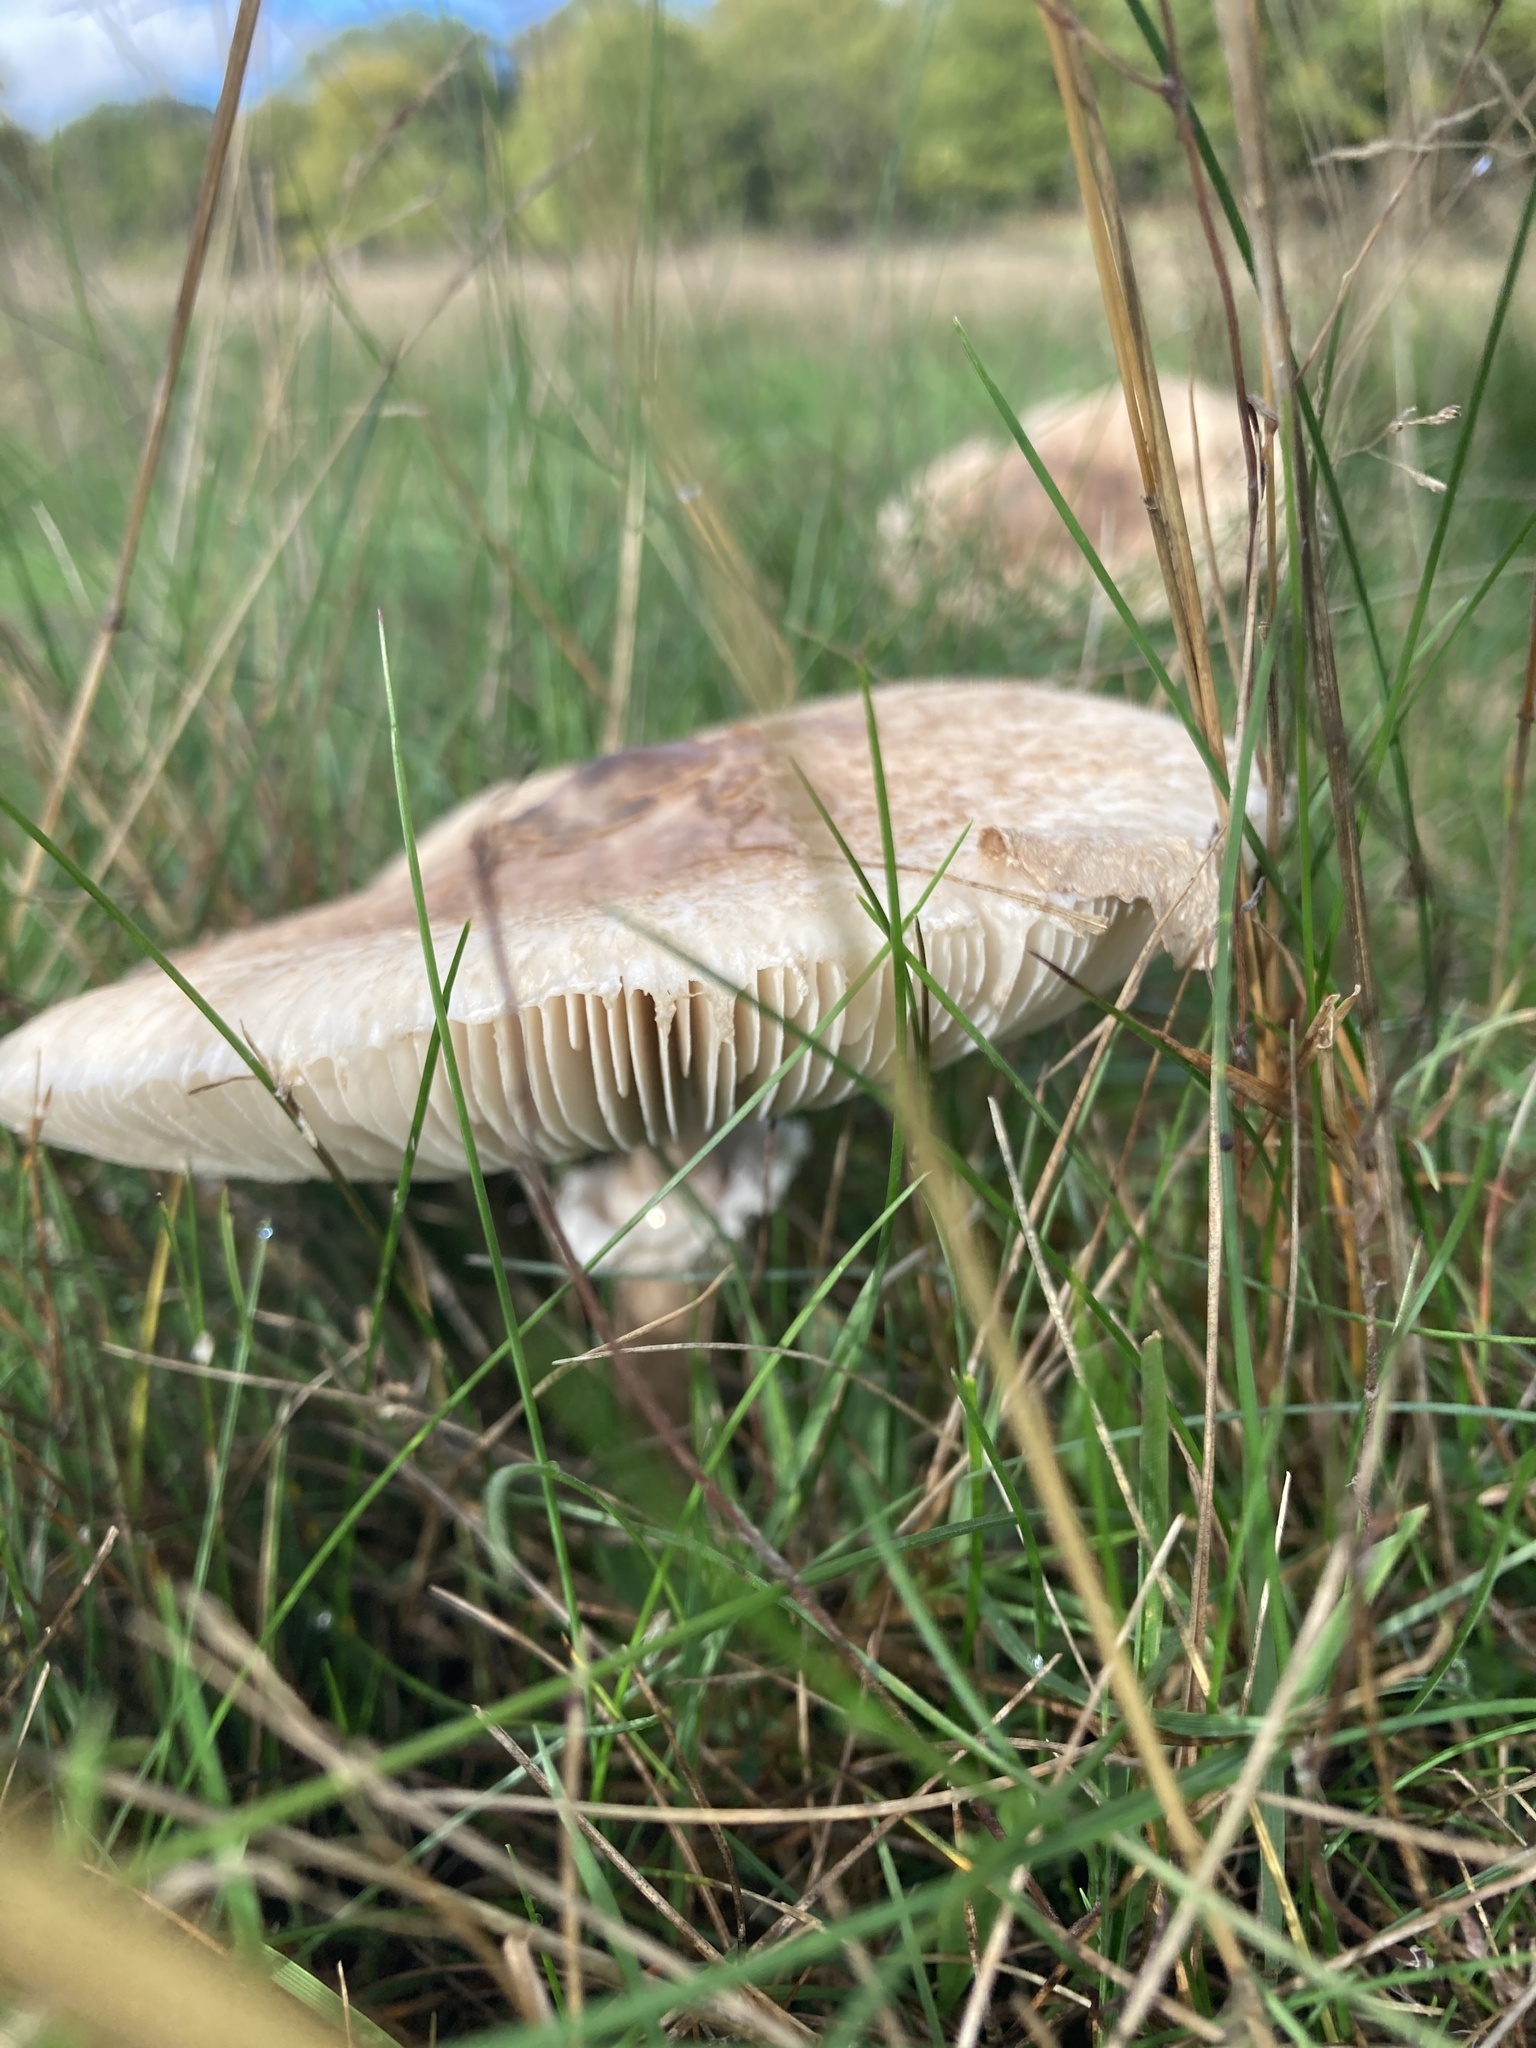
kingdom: Fungi
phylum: Basidiomycota
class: Agaricomycetes
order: Agaricales
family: Agaricaceae
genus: Macrolepiota
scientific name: Macrolepiota procera
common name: Parasol
